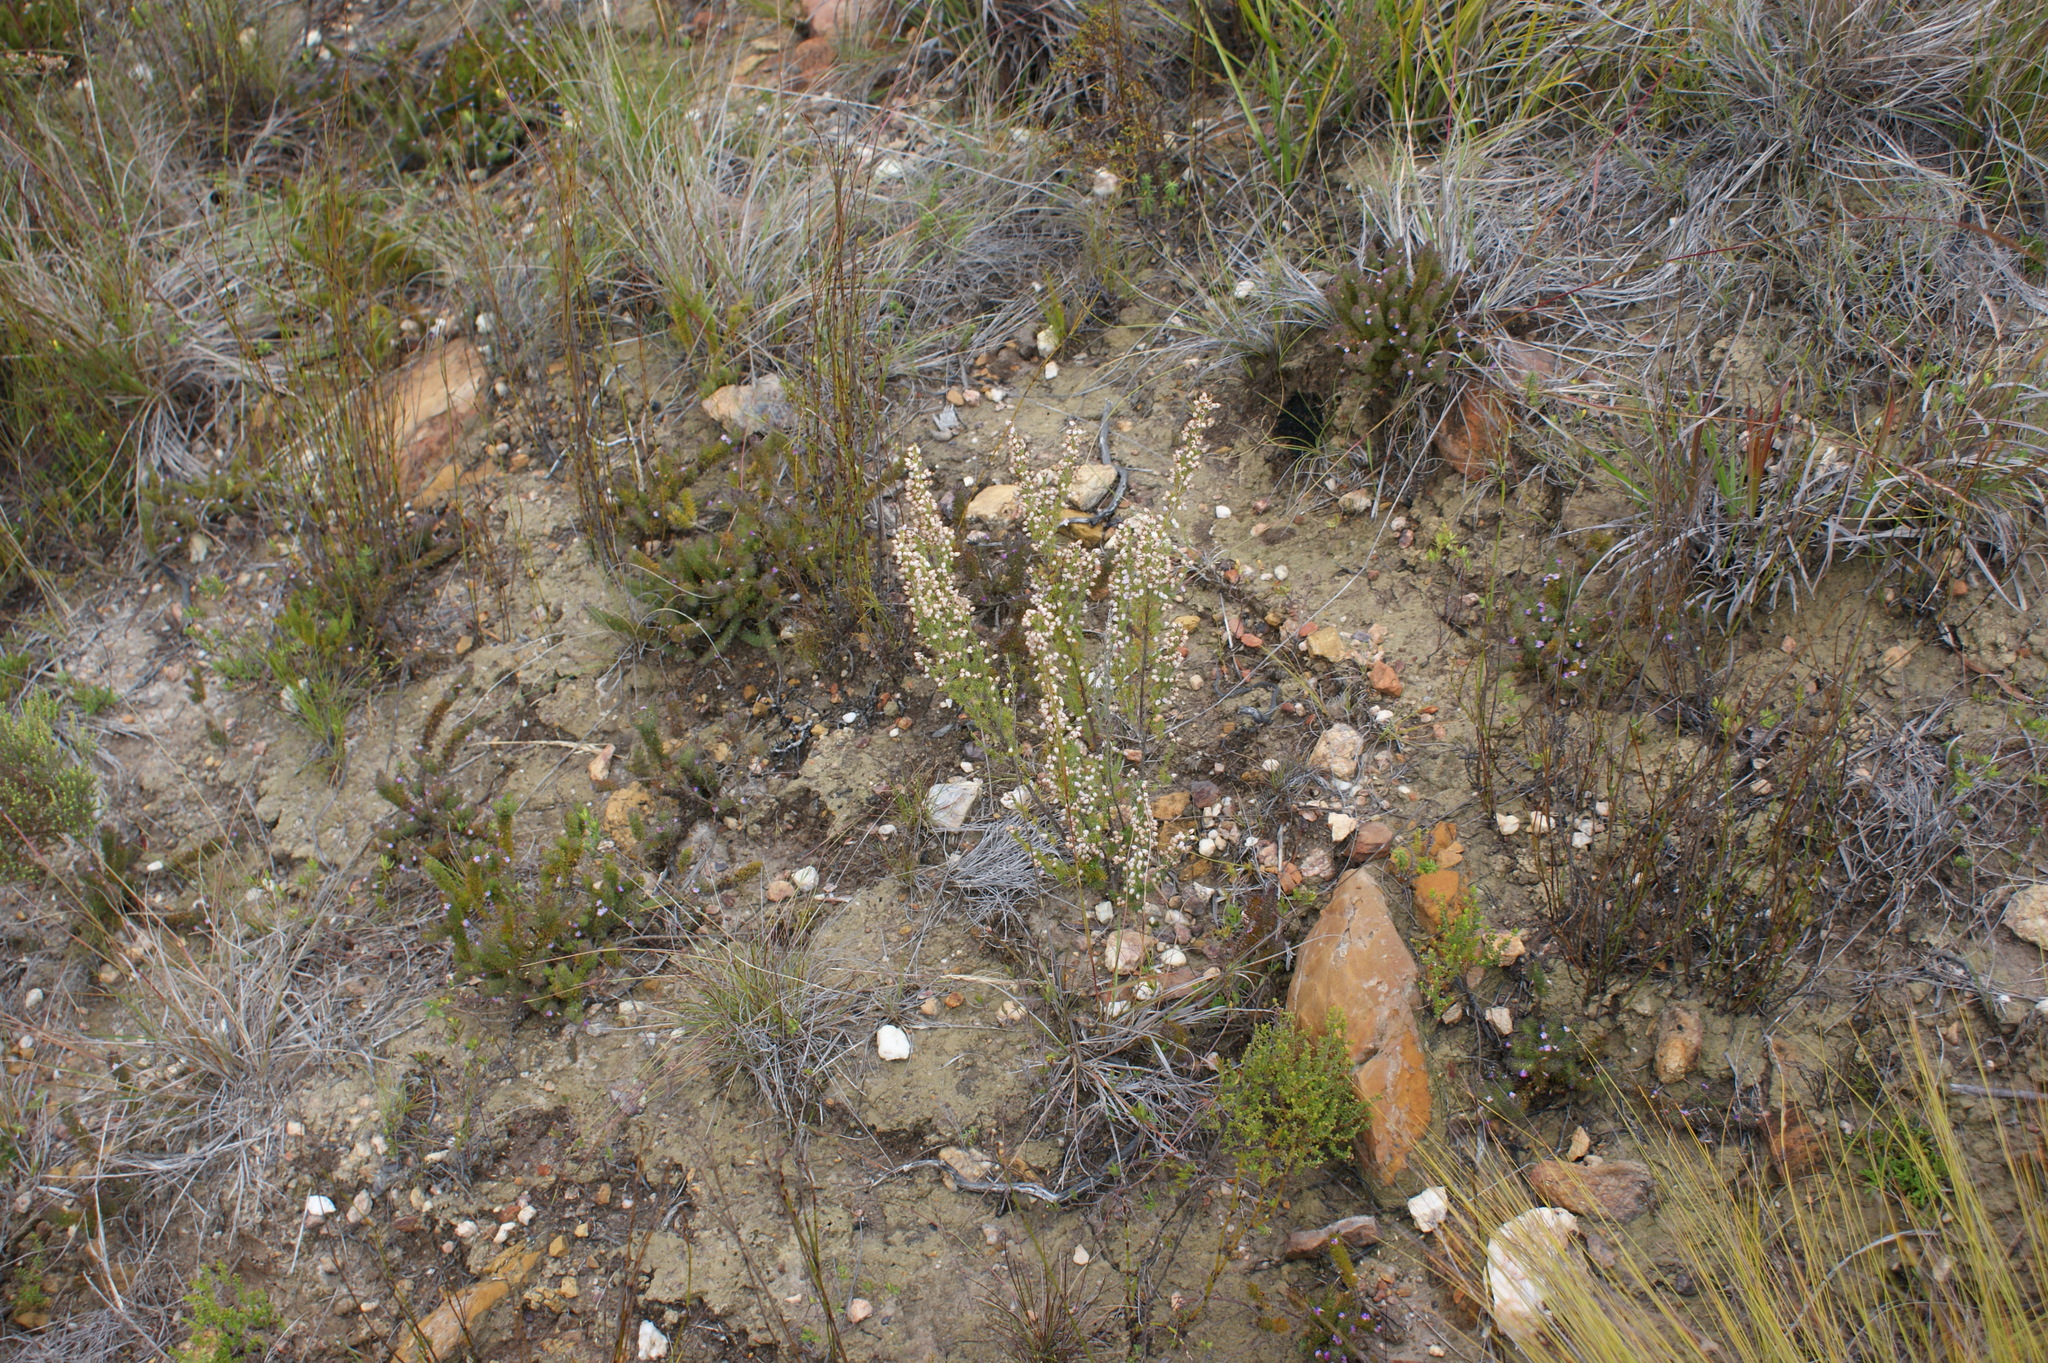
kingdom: Plantae
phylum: Tracheophyta
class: Magnoliopsida
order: Ericales
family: Ericaceae
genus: Erica
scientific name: Erica pubigera
